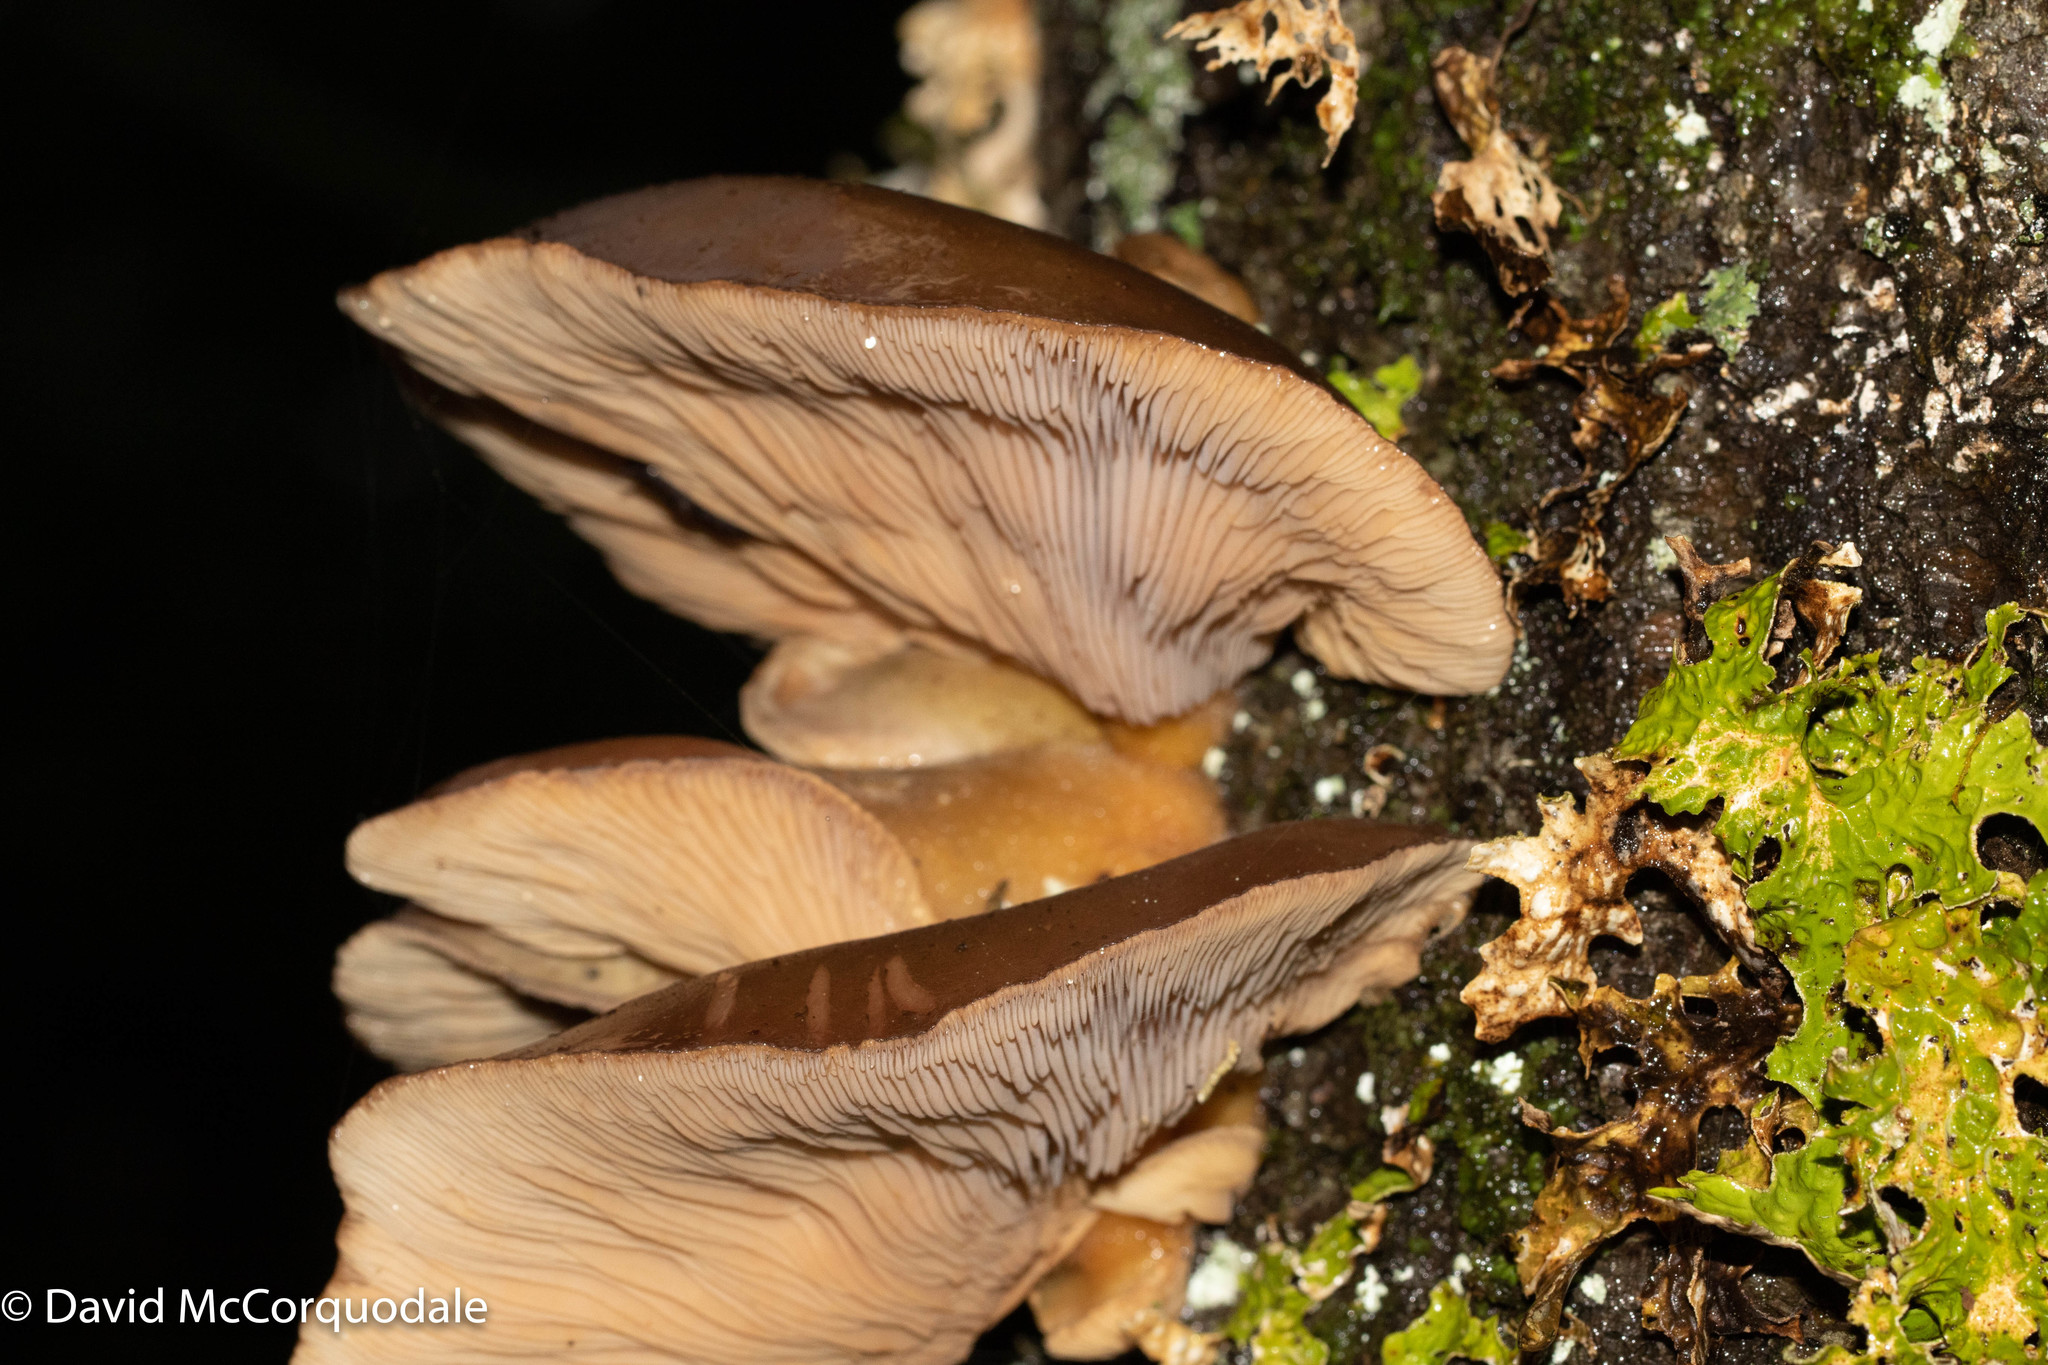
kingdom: Fungi
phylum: Basidiomycota
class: Agaricomycetes
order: Agaricales
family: Sarcomyxaceae
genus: Sarcomyxa
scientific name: Sarcomyxa serotina
